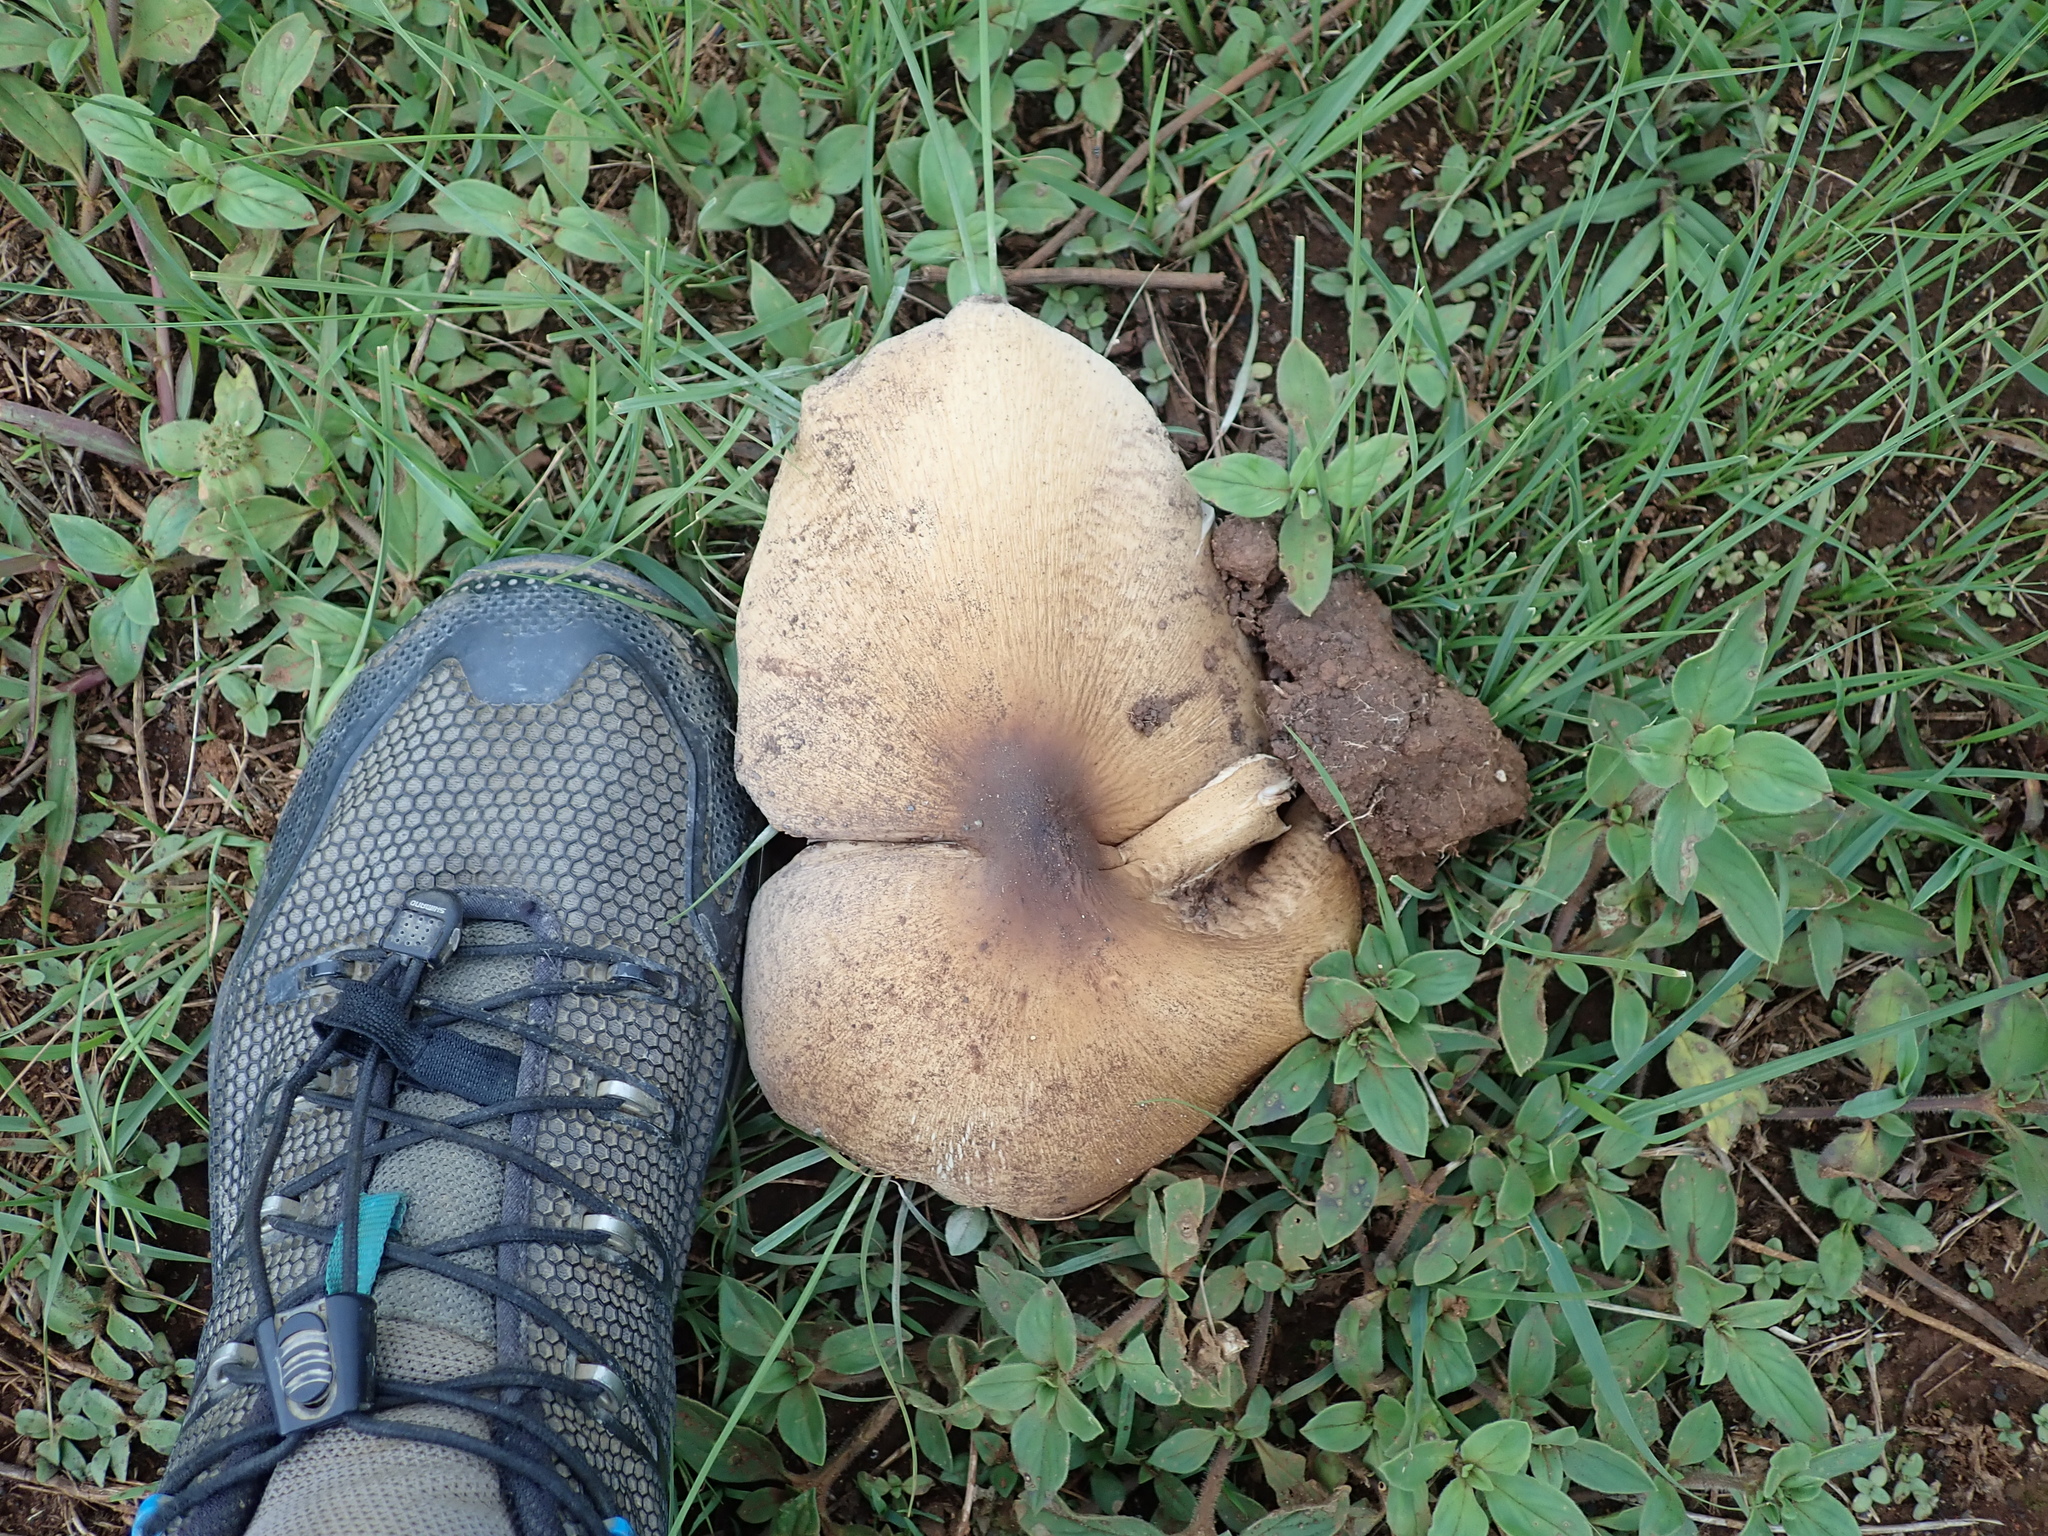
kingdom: Fungi
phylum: Basidiomycota
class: Agaricomycetes
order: Agaricales
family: Lyophyllaceae
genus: Termitomyces
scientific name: Termitomyces umkowaan
